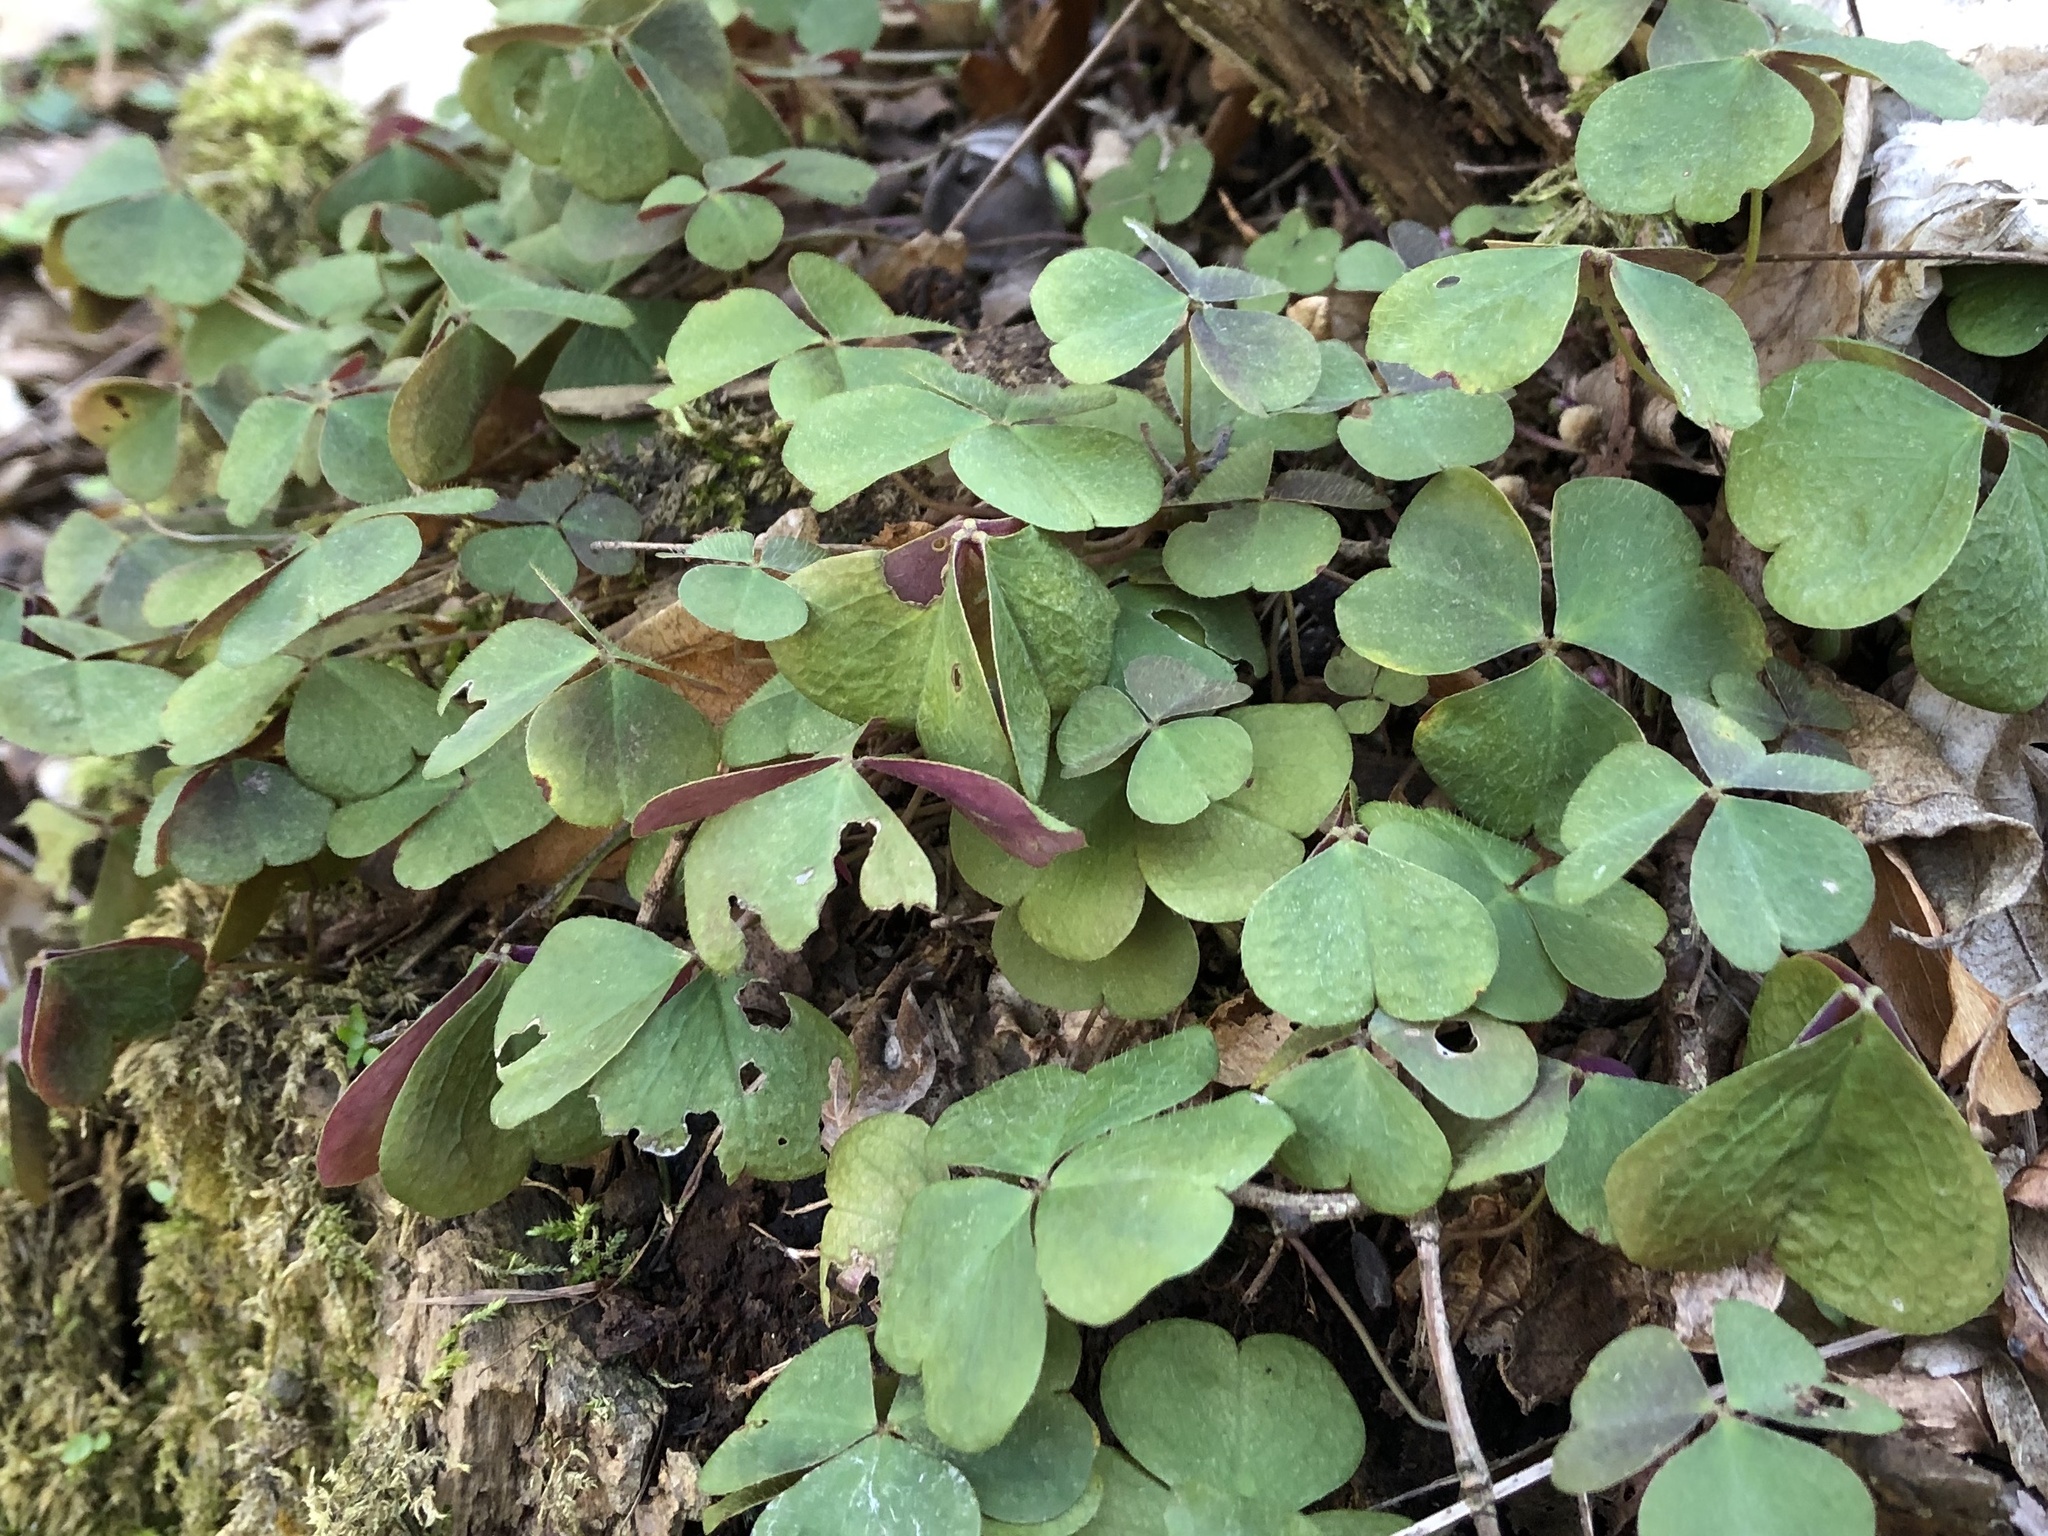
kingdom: Plantae
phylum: Tracheophyta
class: Magnoliopsida
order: Oxalidales
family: Oxalidaceae
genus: Oxalis
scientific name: Oxalis acetosella
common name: Wood-sorrel
